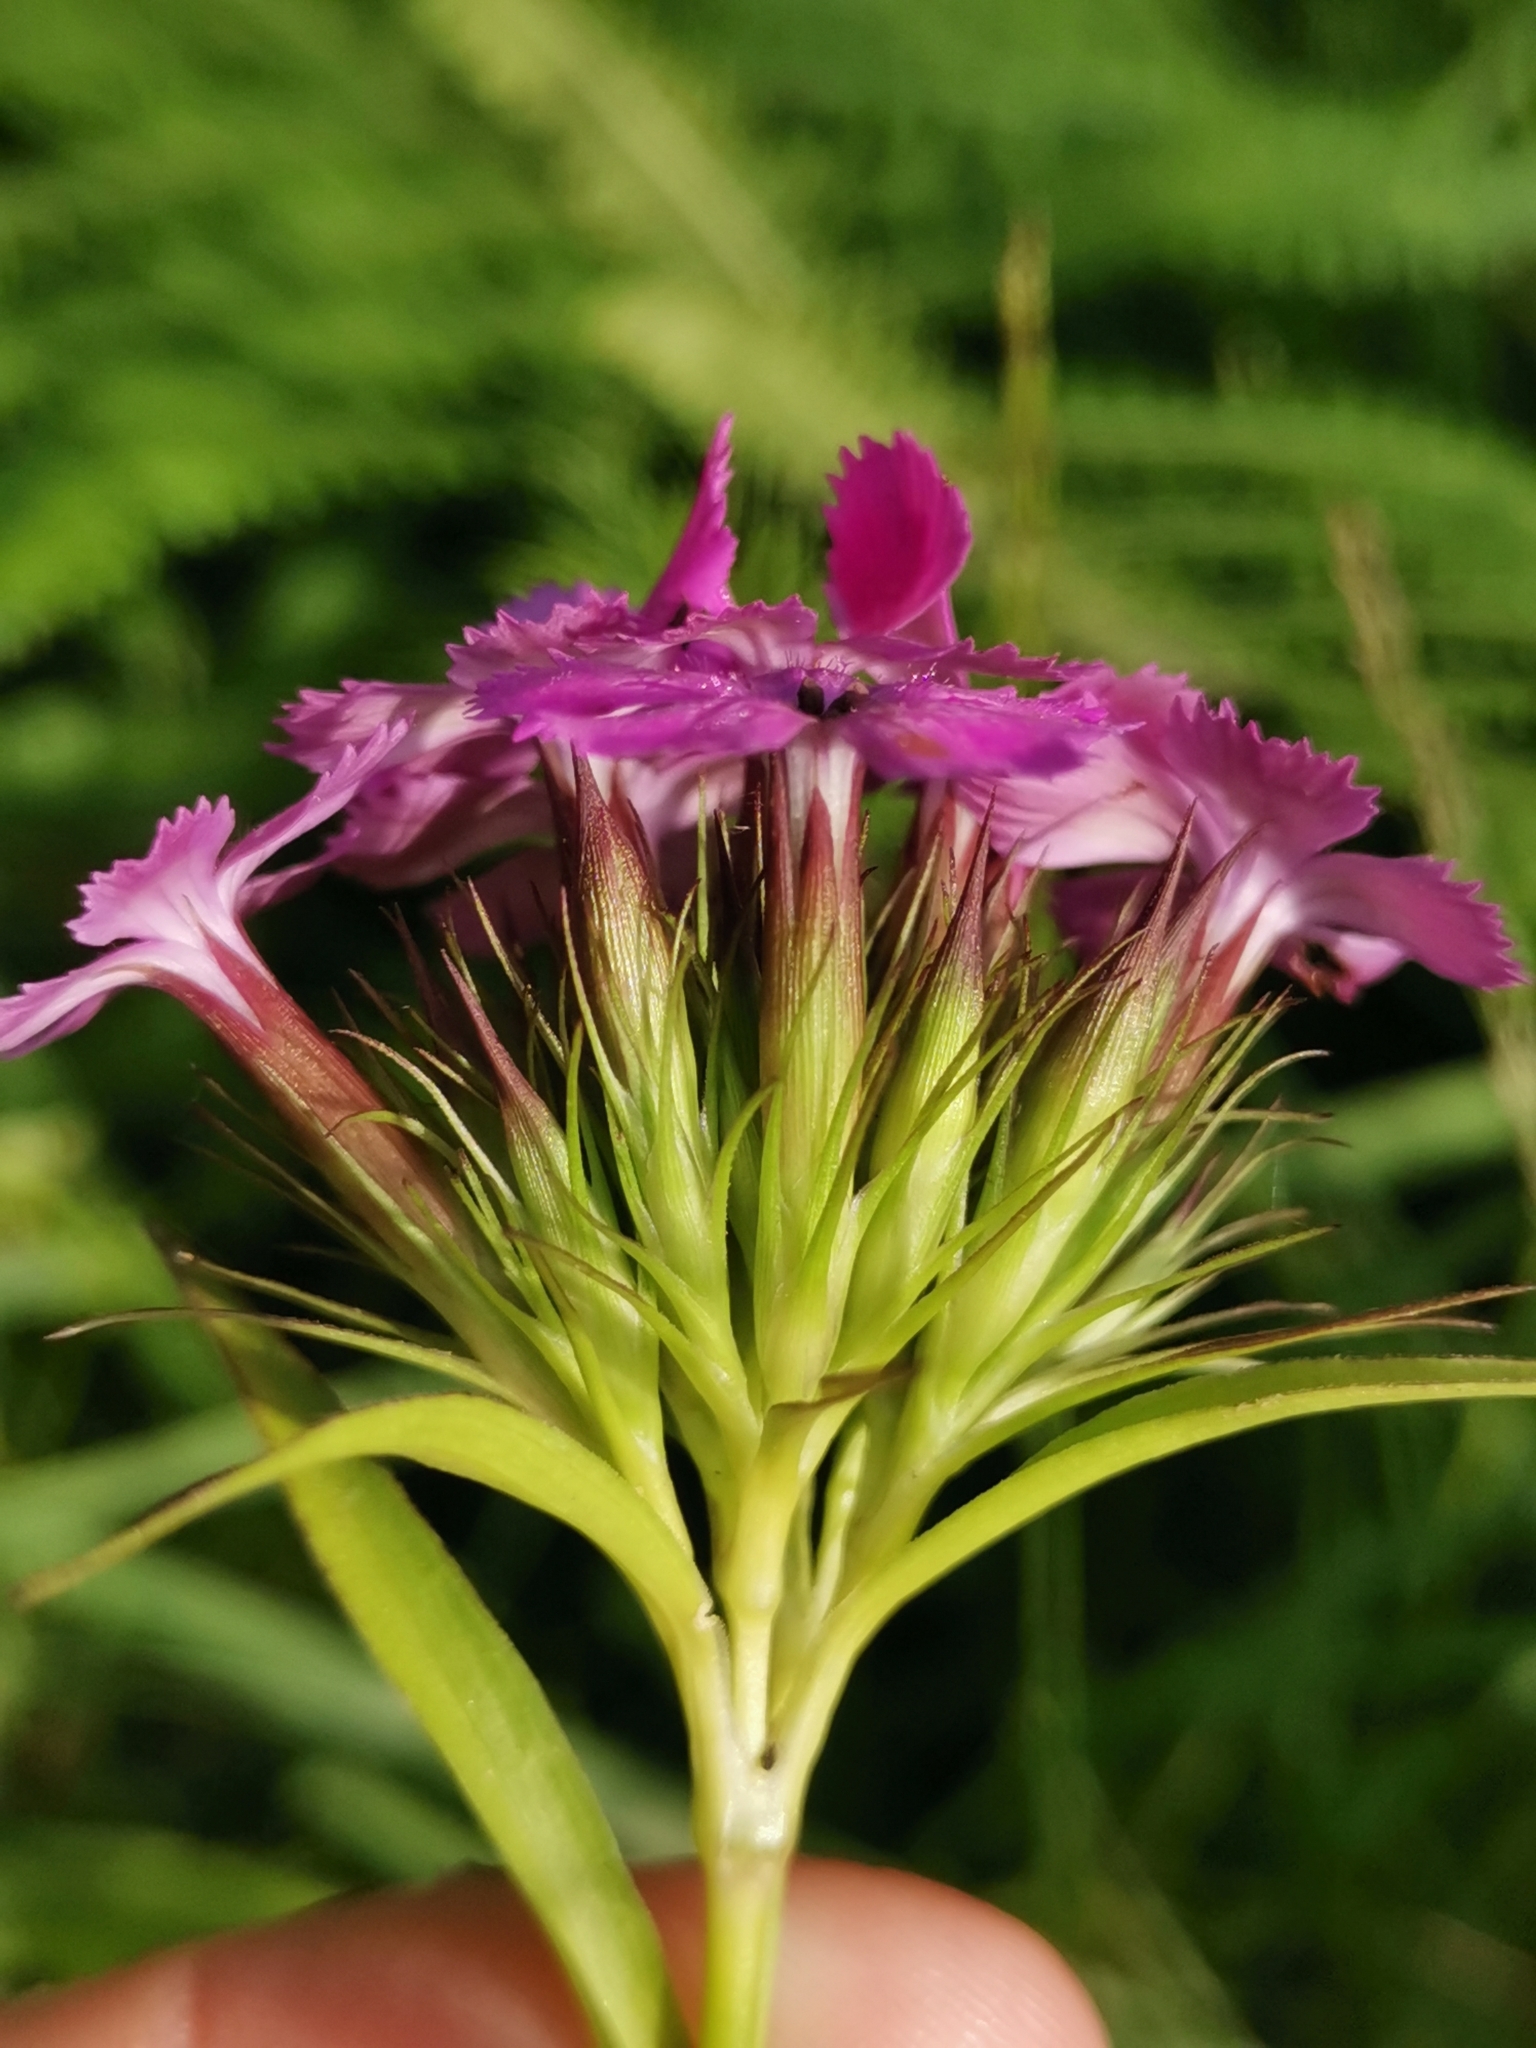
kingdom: Plantae
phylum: Tracheophyta
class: Magnoliopsida
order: Caryophyllales
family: Caryophyllaceae
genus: Dianthus
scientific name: Dianthus barbatus
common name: Sweet-william
